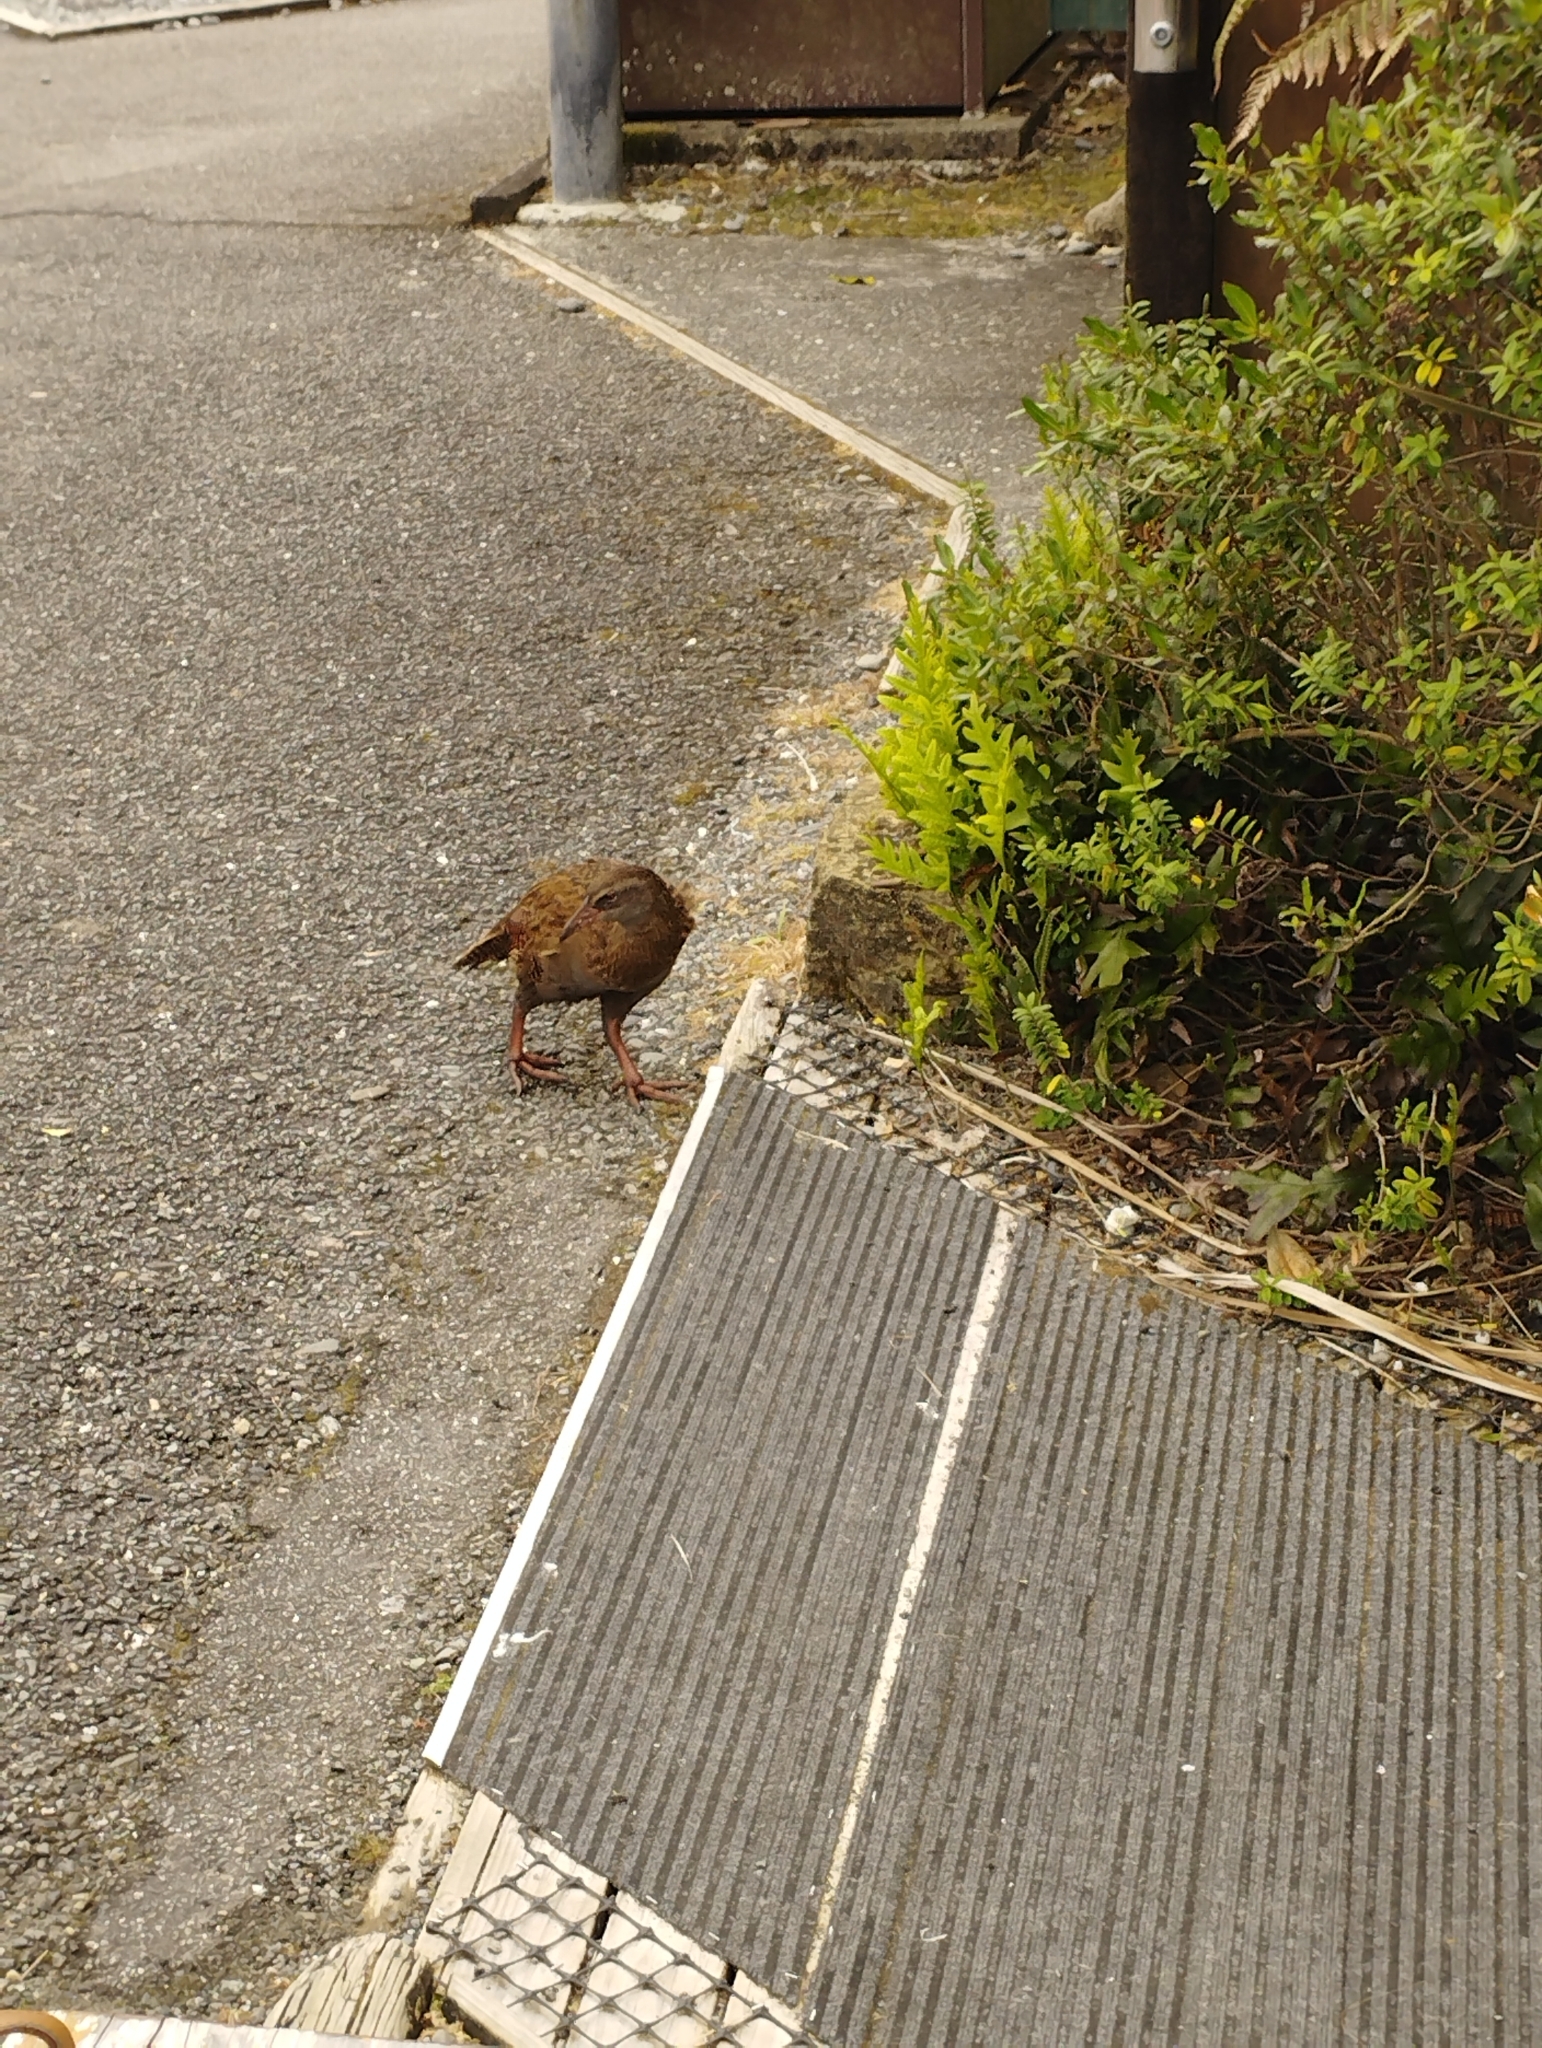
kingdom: Animalia
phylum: Chordata
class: Aves
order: Gruiformes
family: Rallidae
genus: Gallirallus
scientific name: Gallirallus australis
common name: Weka
